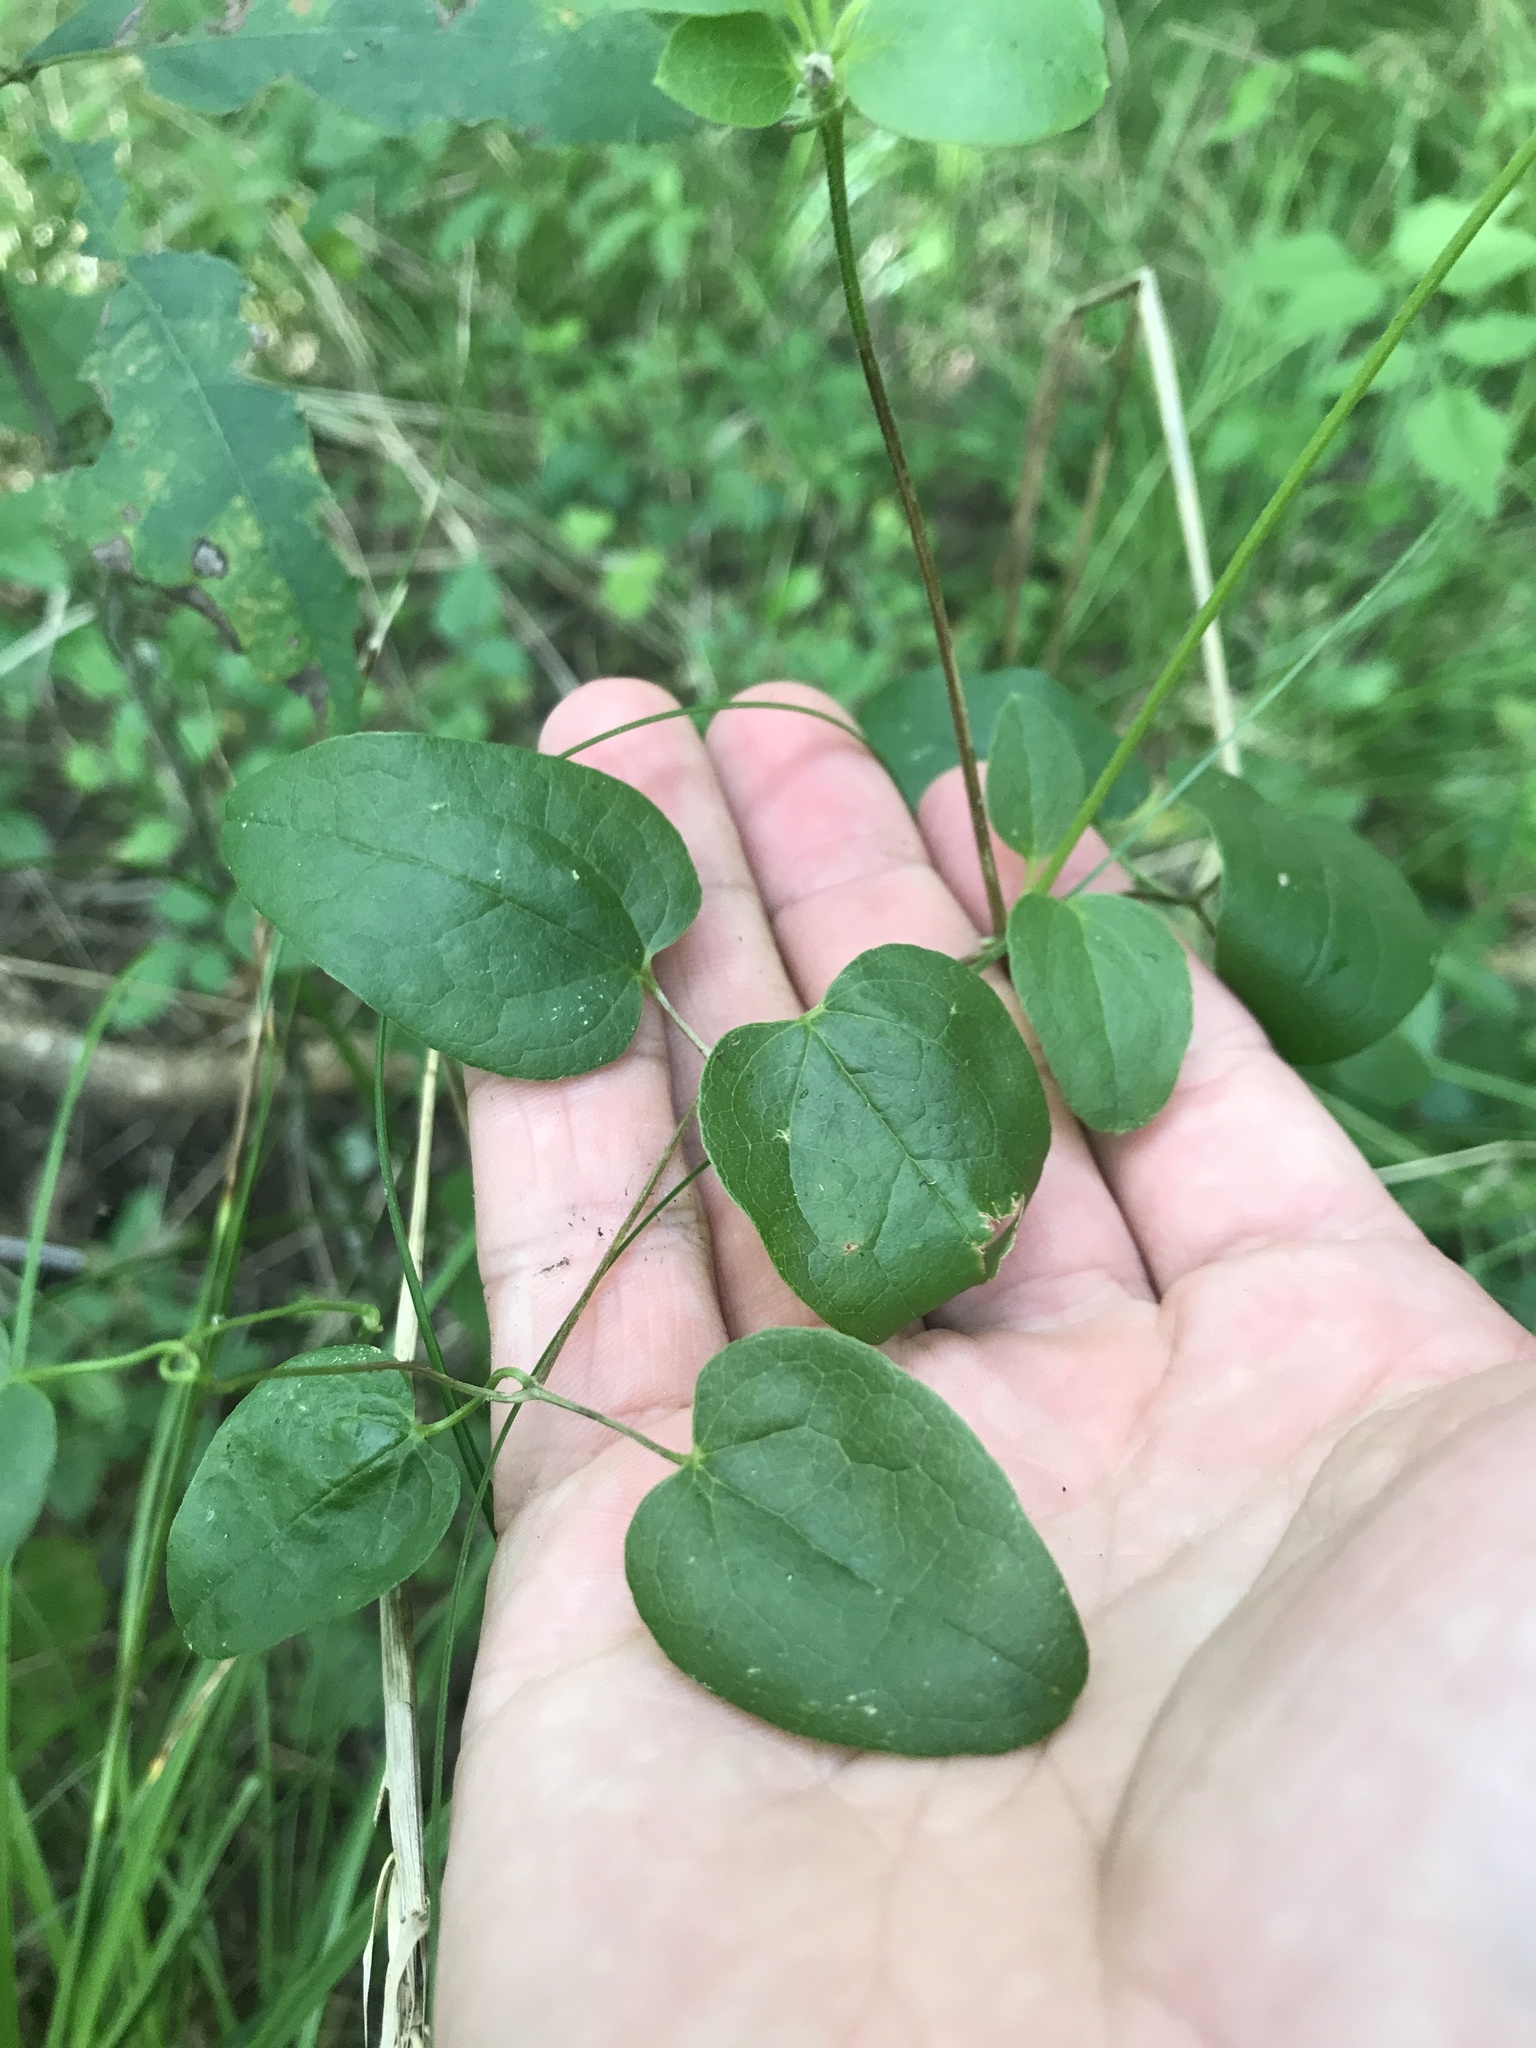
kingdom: Plantae
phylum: Tracheophyta
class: Magnoliopsida
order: Ranunculales
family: Ranunculaceae
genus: Clematis
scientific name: Clematis pitcheri
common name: Bellflower clematis
